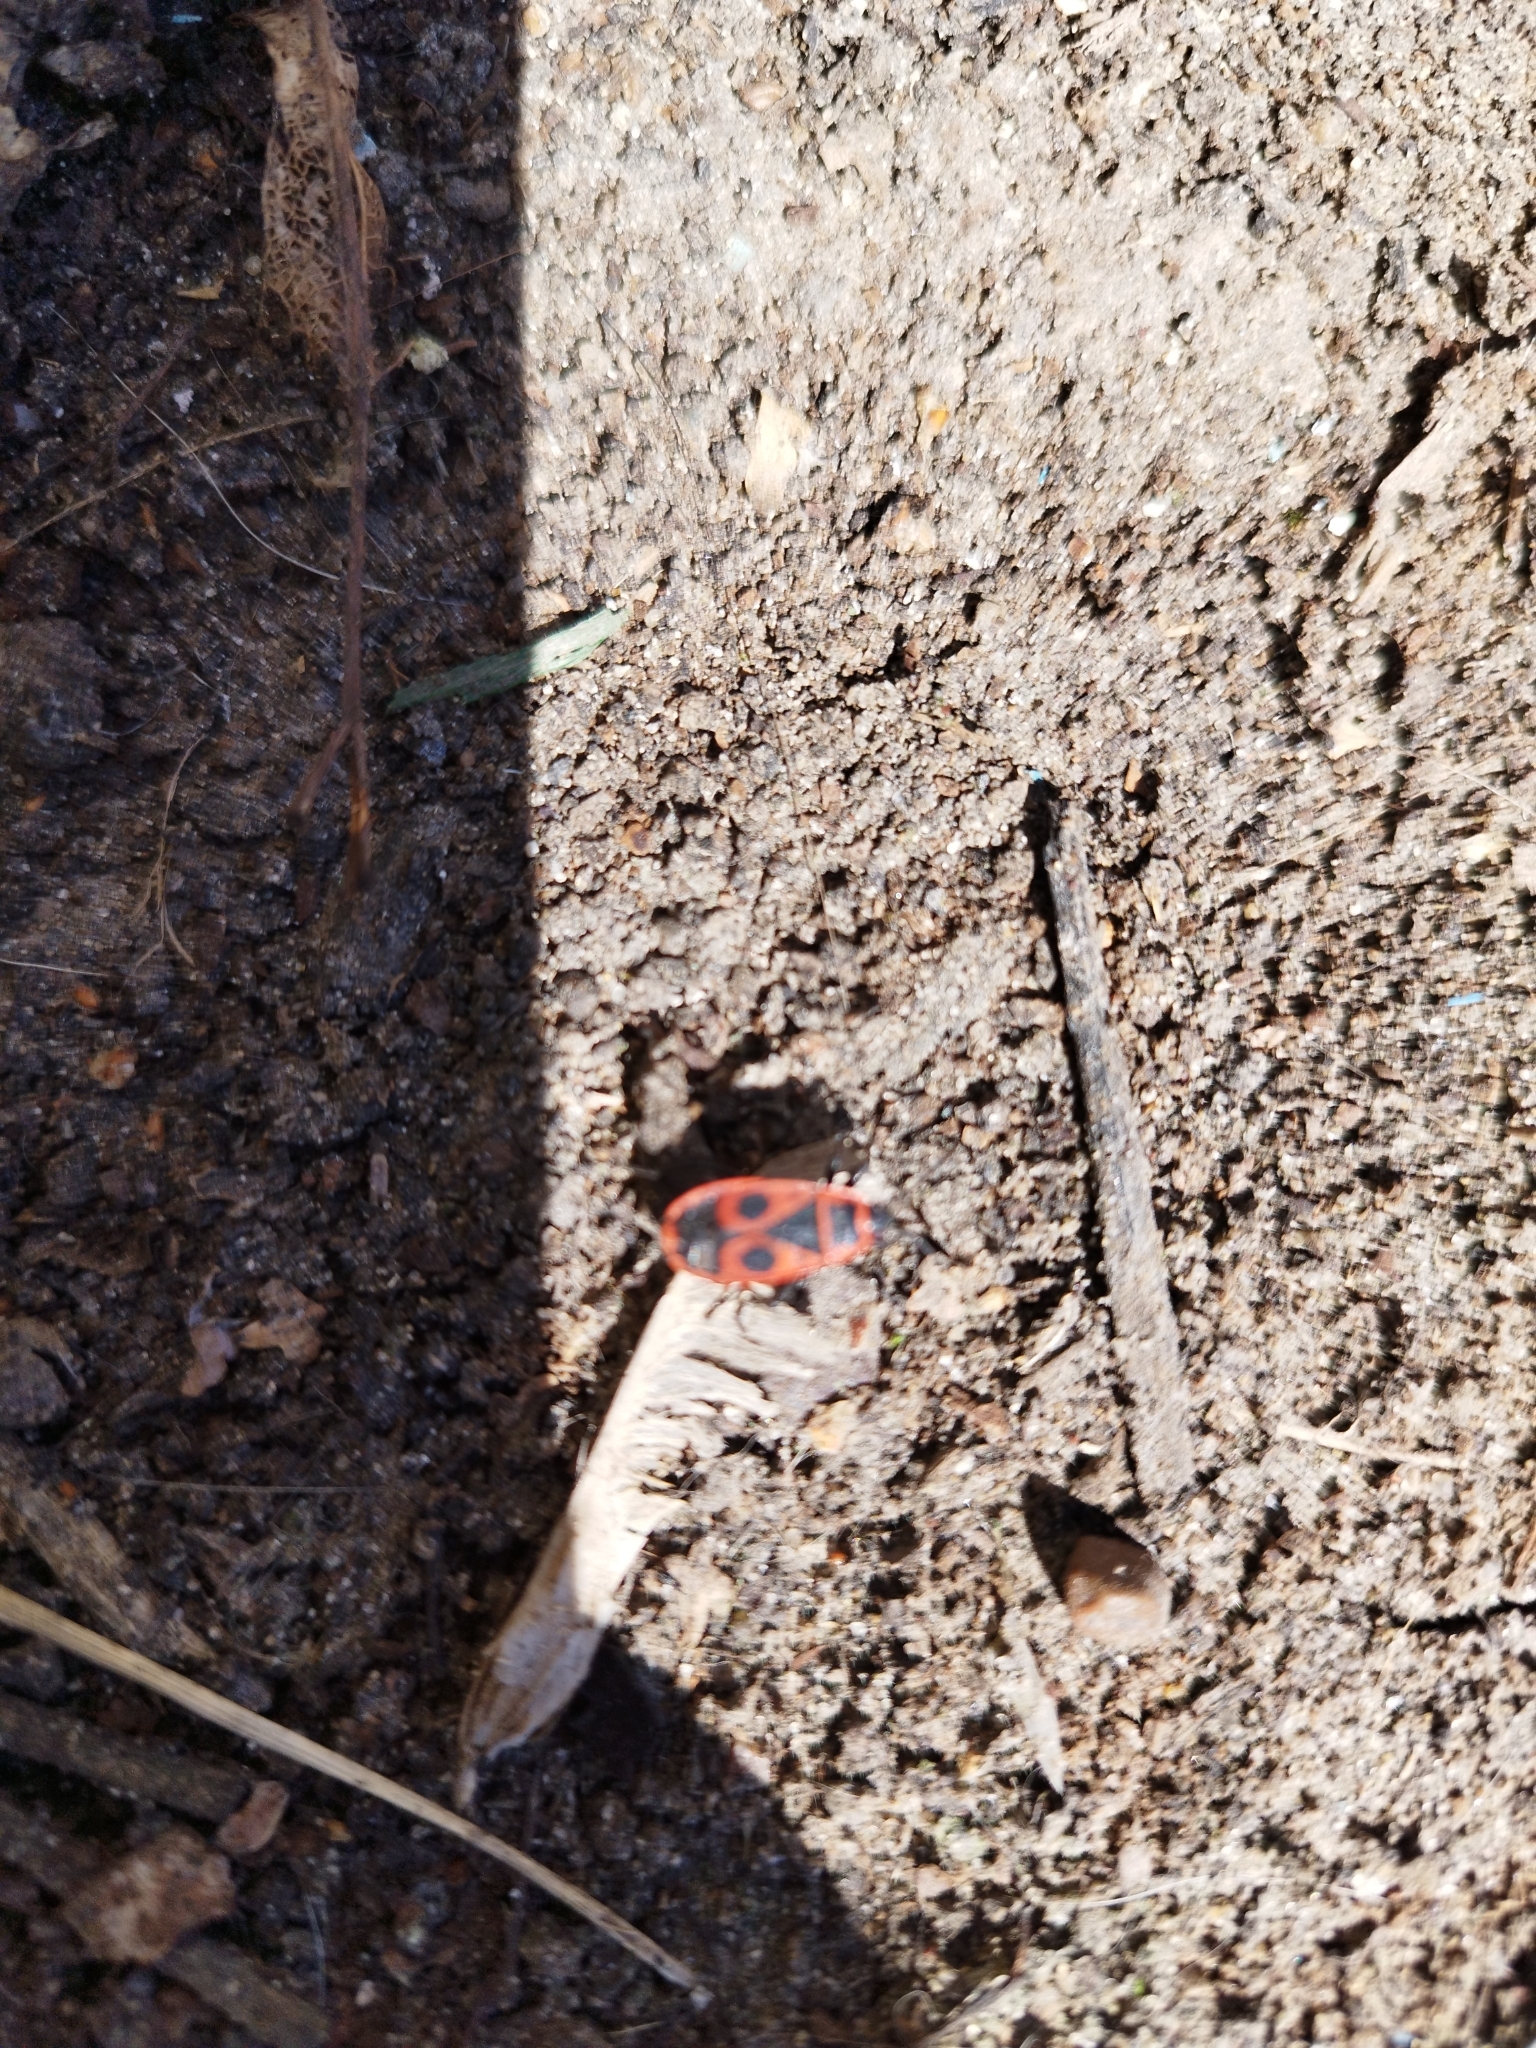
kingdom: Animalia
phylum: Arthropoda
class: Insecta
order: Hemiptera
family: Pyrrhocoridae
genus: Pyrrhocoris
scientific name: Pyrrhocoris apterus
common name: Firebug
